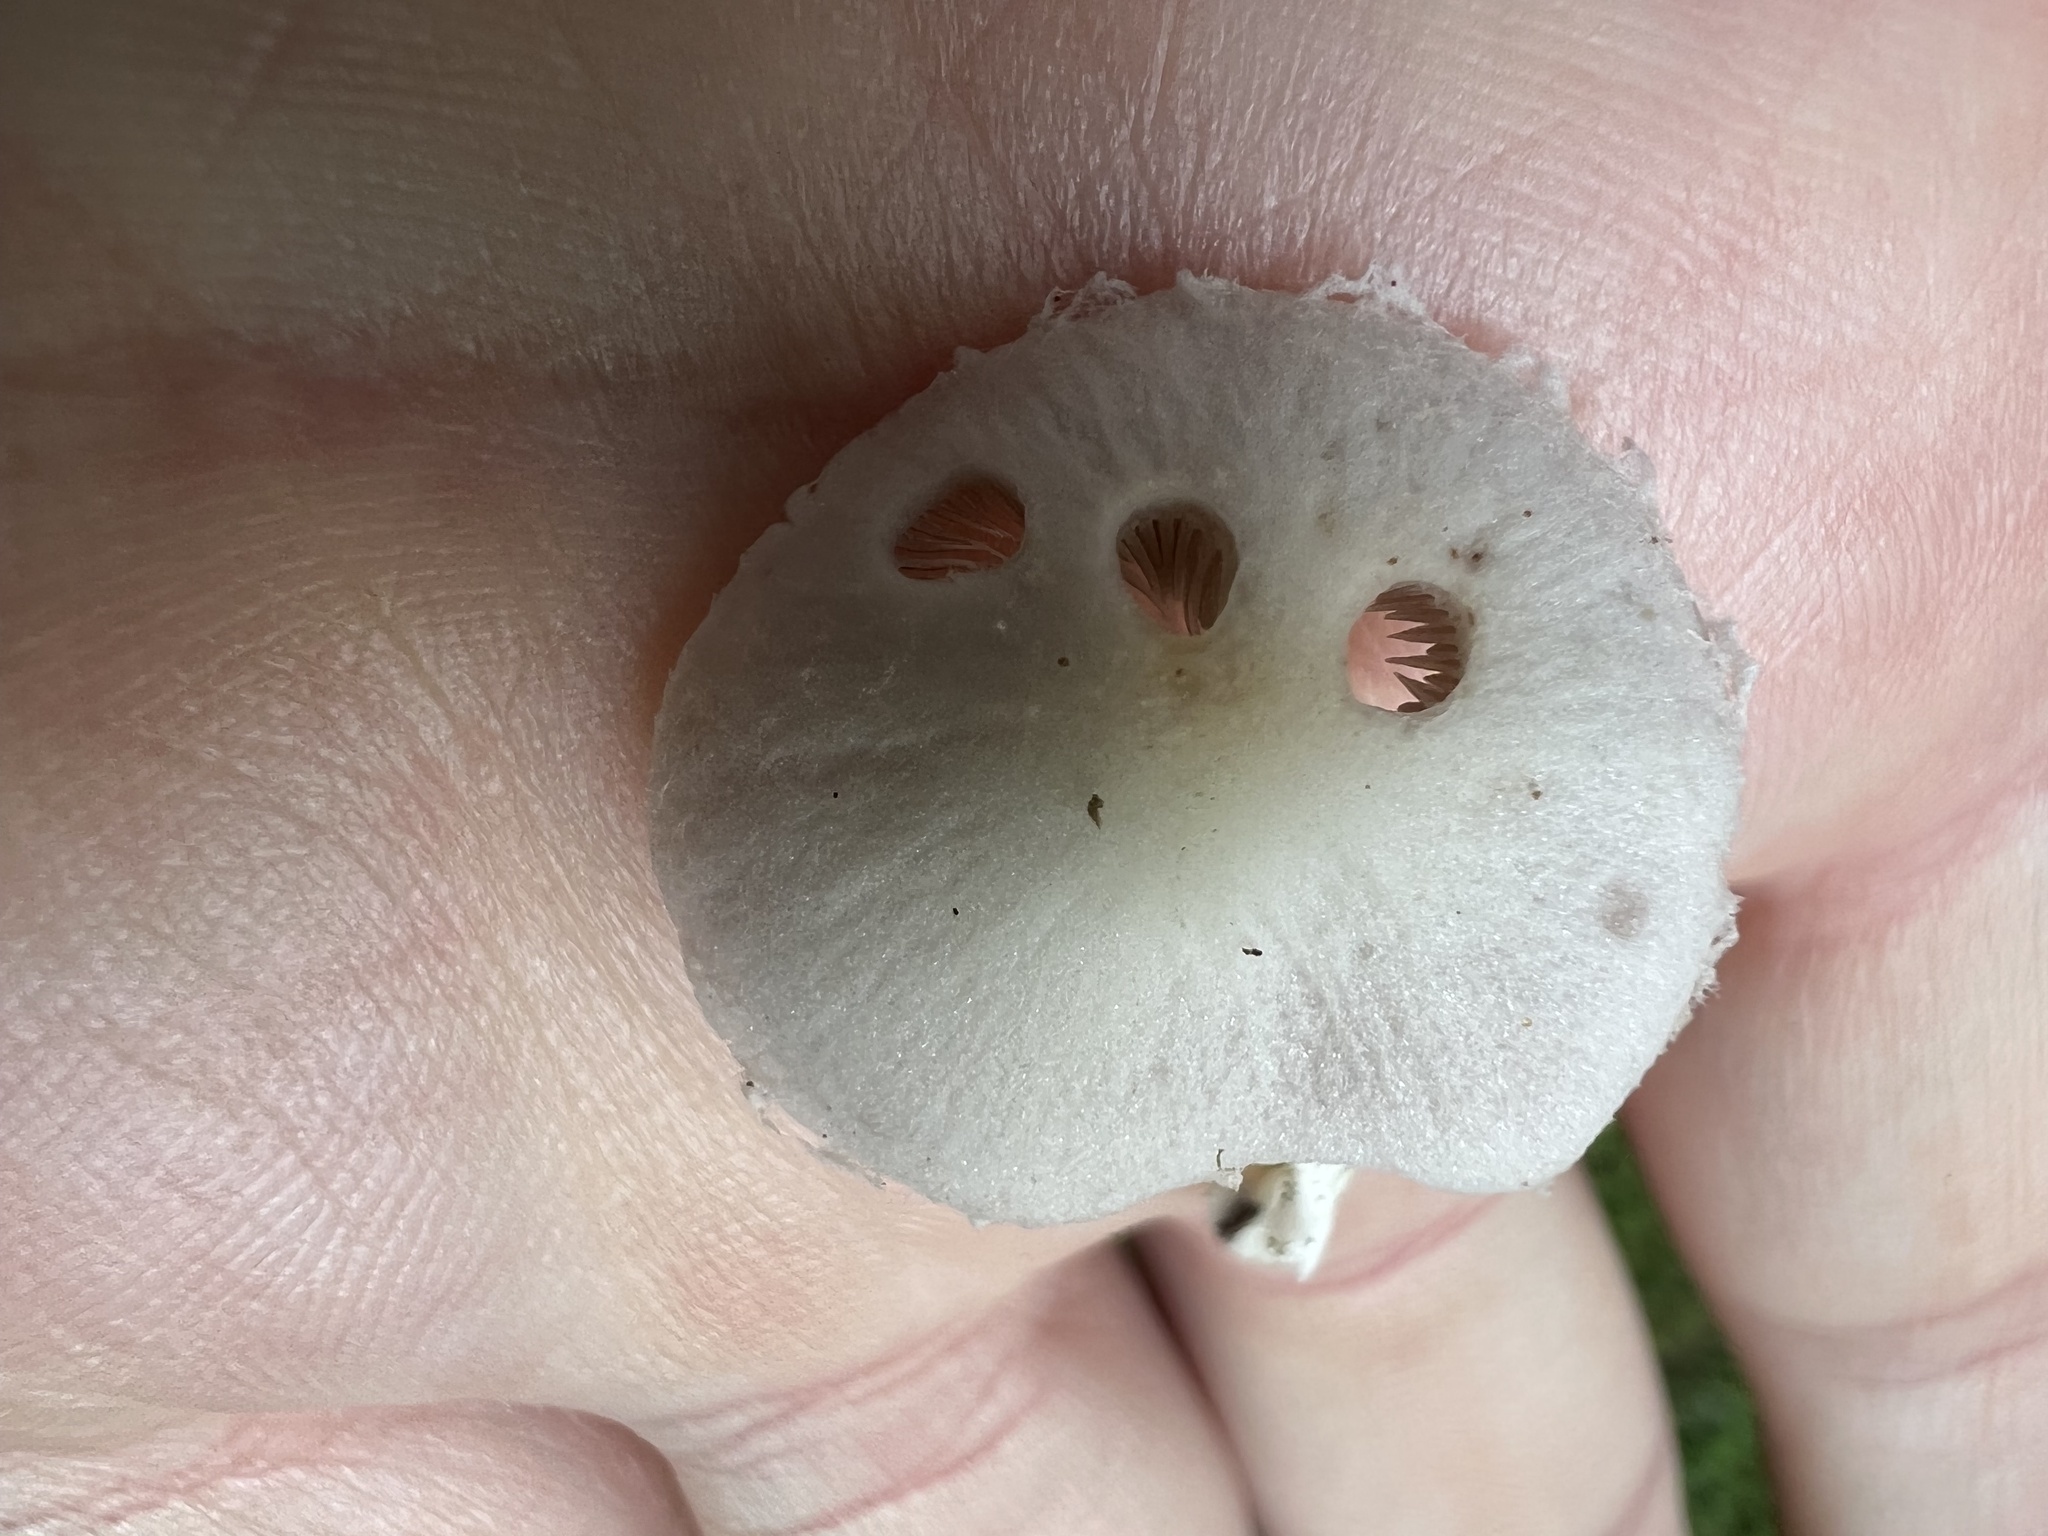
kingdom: Fungi
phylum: Basidiomycota
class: Agaricomycetes
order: Agaricales
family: Psathyrellaceae
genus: Candolleomyces
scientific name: Candolleomyces candolleanus
